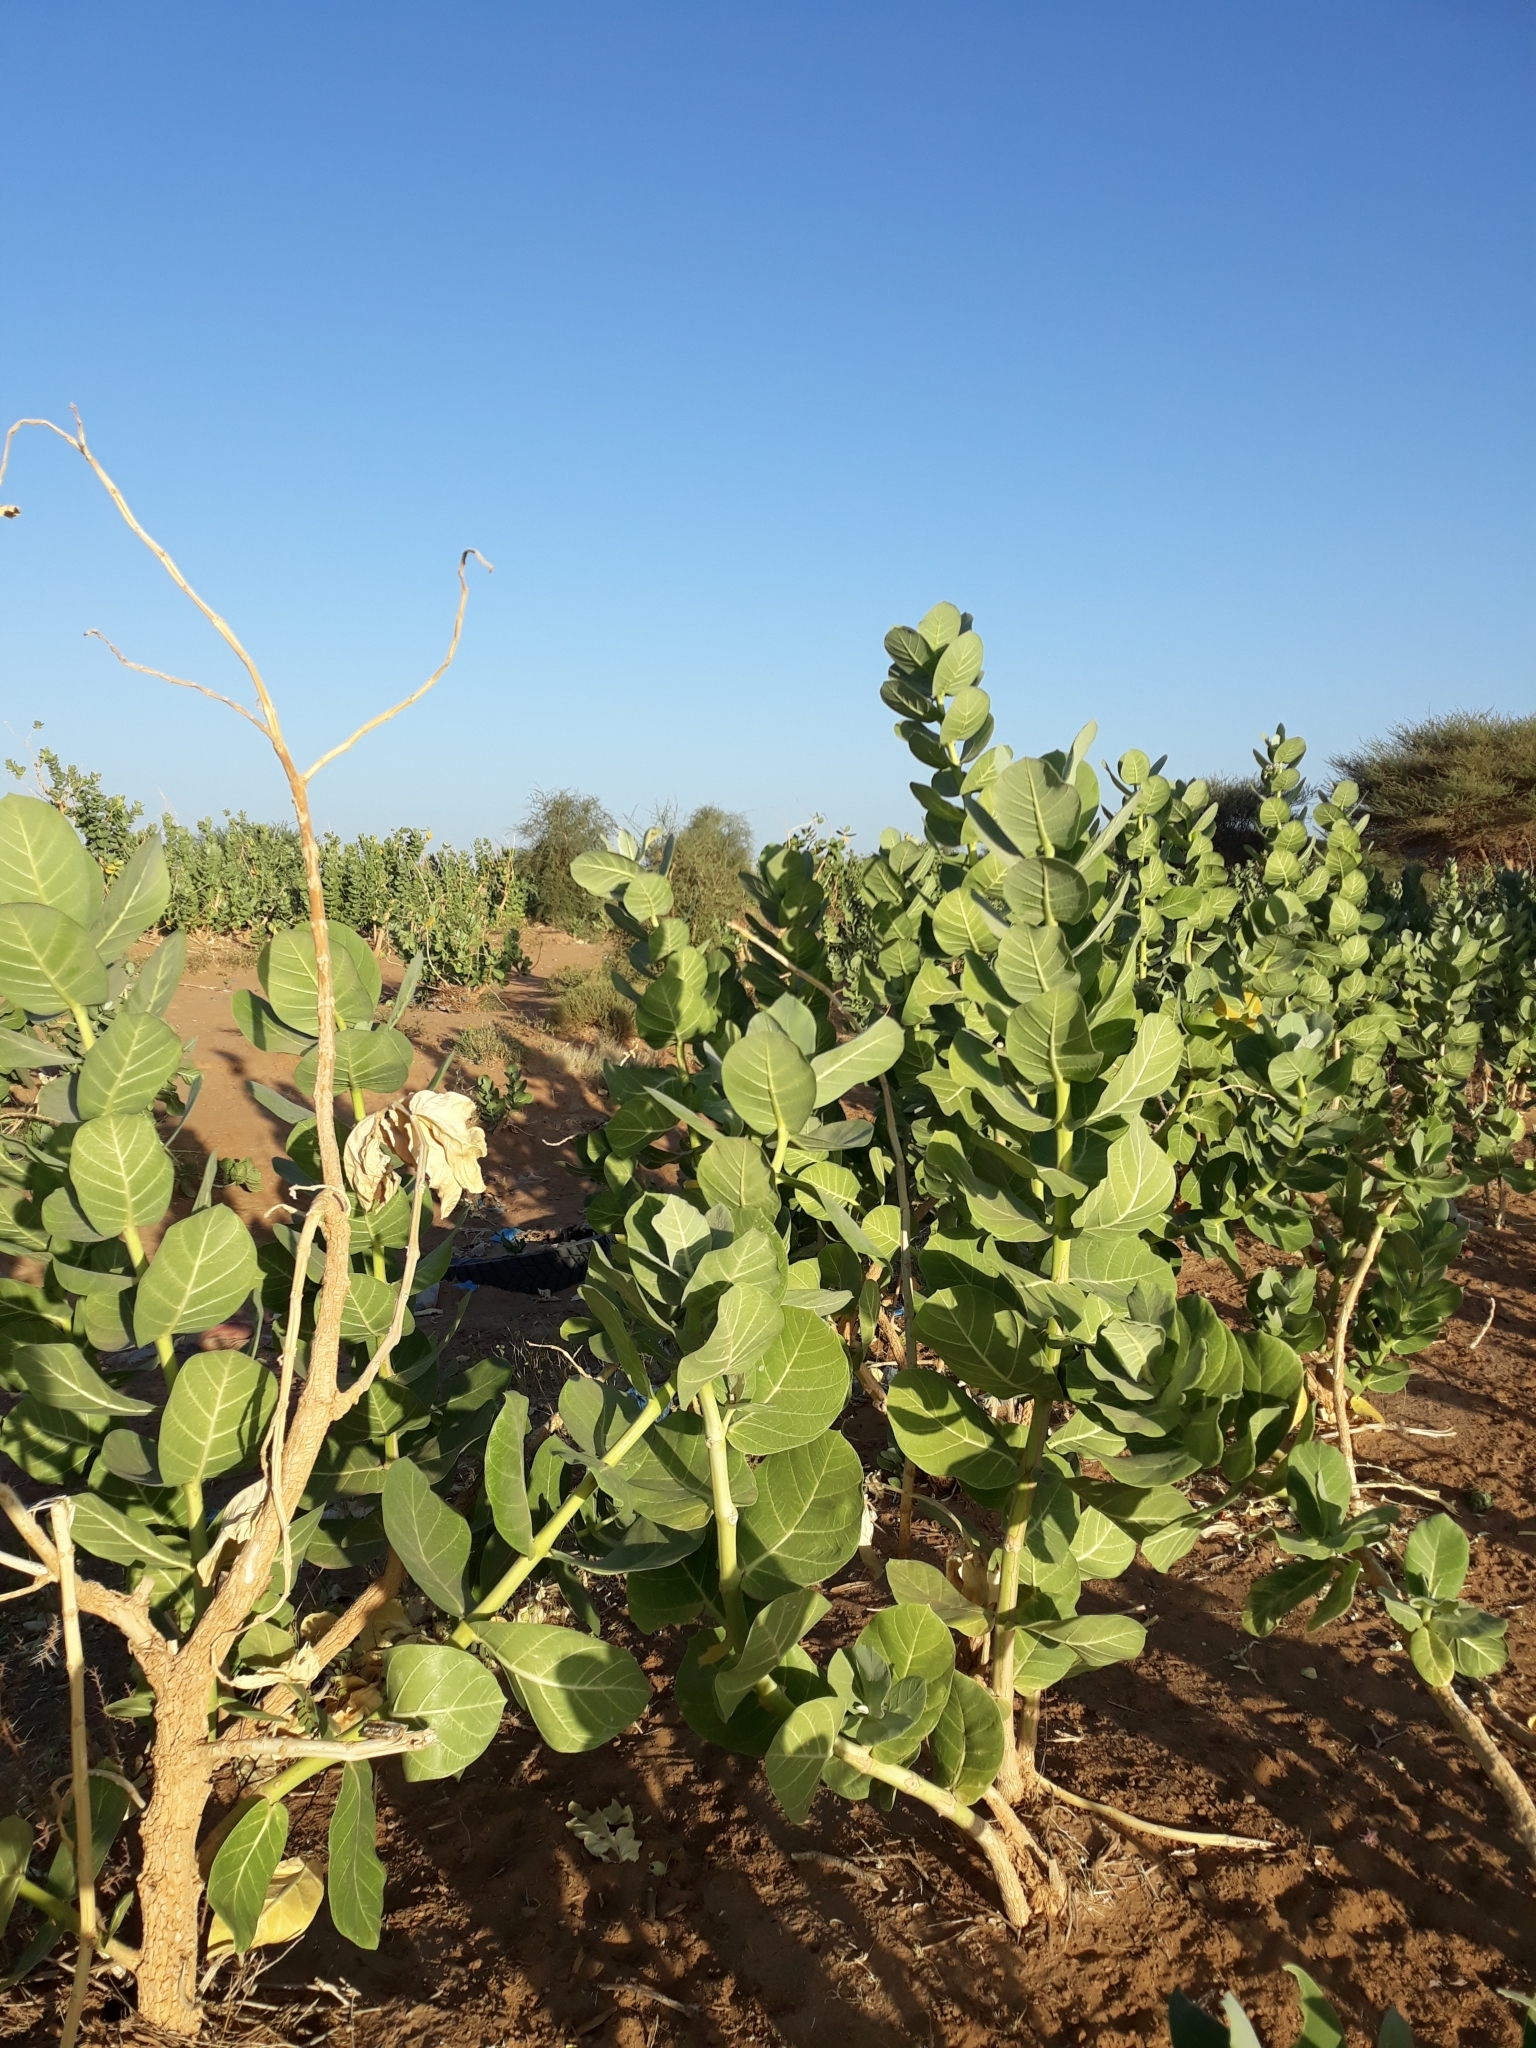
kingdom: Plantae
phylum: Tracheophyta
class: Magnoliopsida
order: Gentianales
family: Apocynaceae
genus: Calotropis
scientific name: Calotropis procera
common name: Roostertree
